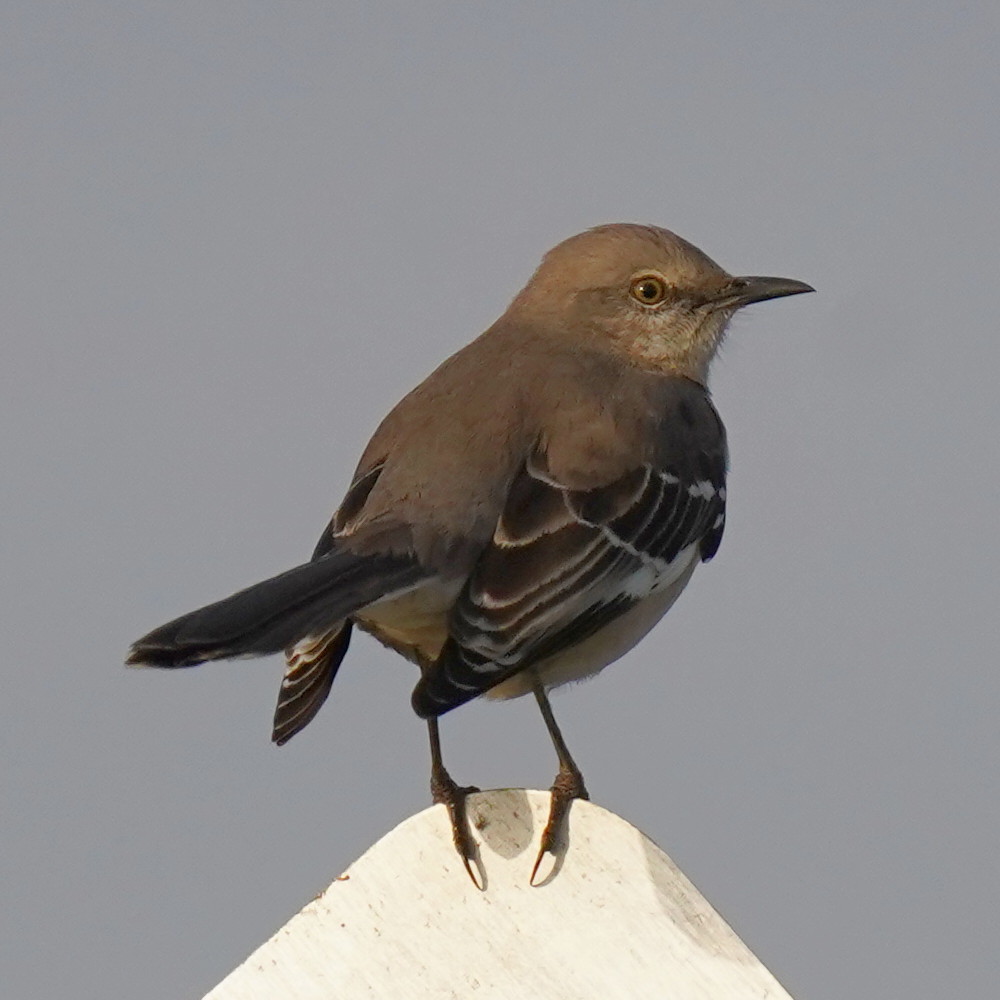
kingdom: Animalia
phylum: Chordata
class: Aves
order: Passeriformes
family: Mimidae
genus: Mimus
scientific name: Mimus polyglottos
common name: Northern mockingbird
